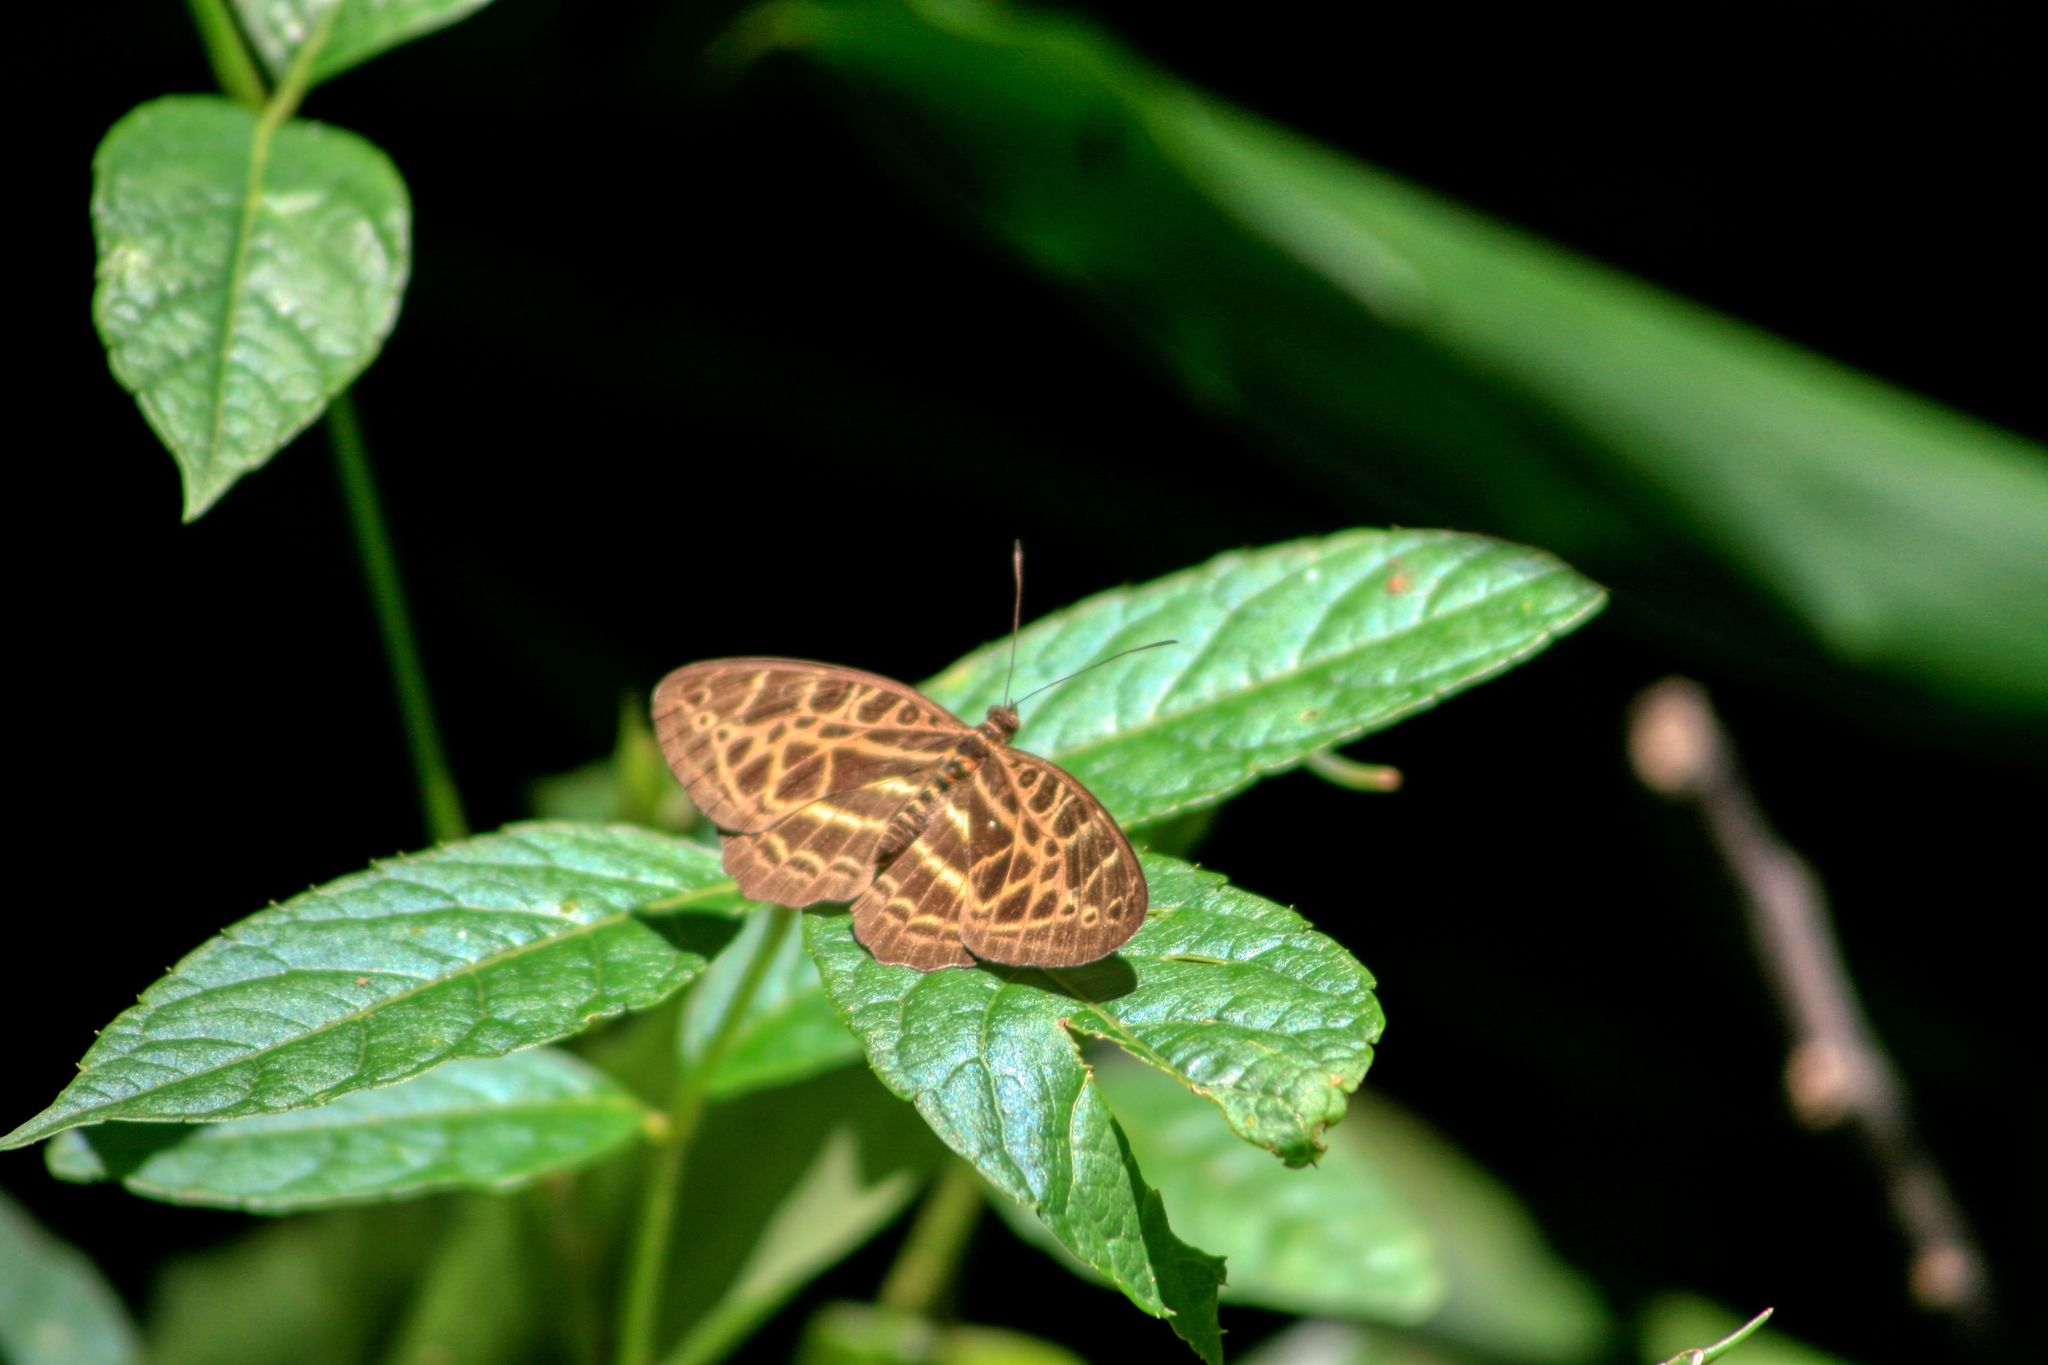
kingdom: Animalia
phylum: Arthropoda
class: Insecta
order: Lepidoptera
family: Nymphalidae
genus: Catuna
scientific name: Catuna
